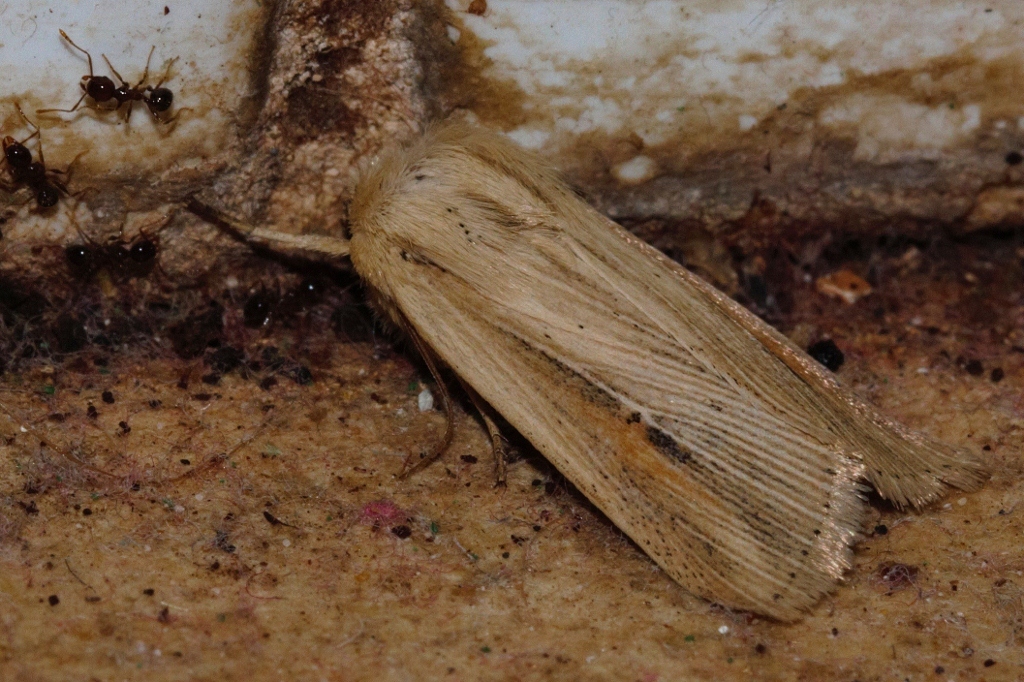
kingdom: Animalia
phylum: Arthropoda
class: Insecta
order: Lepidoptera
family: Noctuidae
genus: Vietteania
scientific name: Vietteania torrentium
